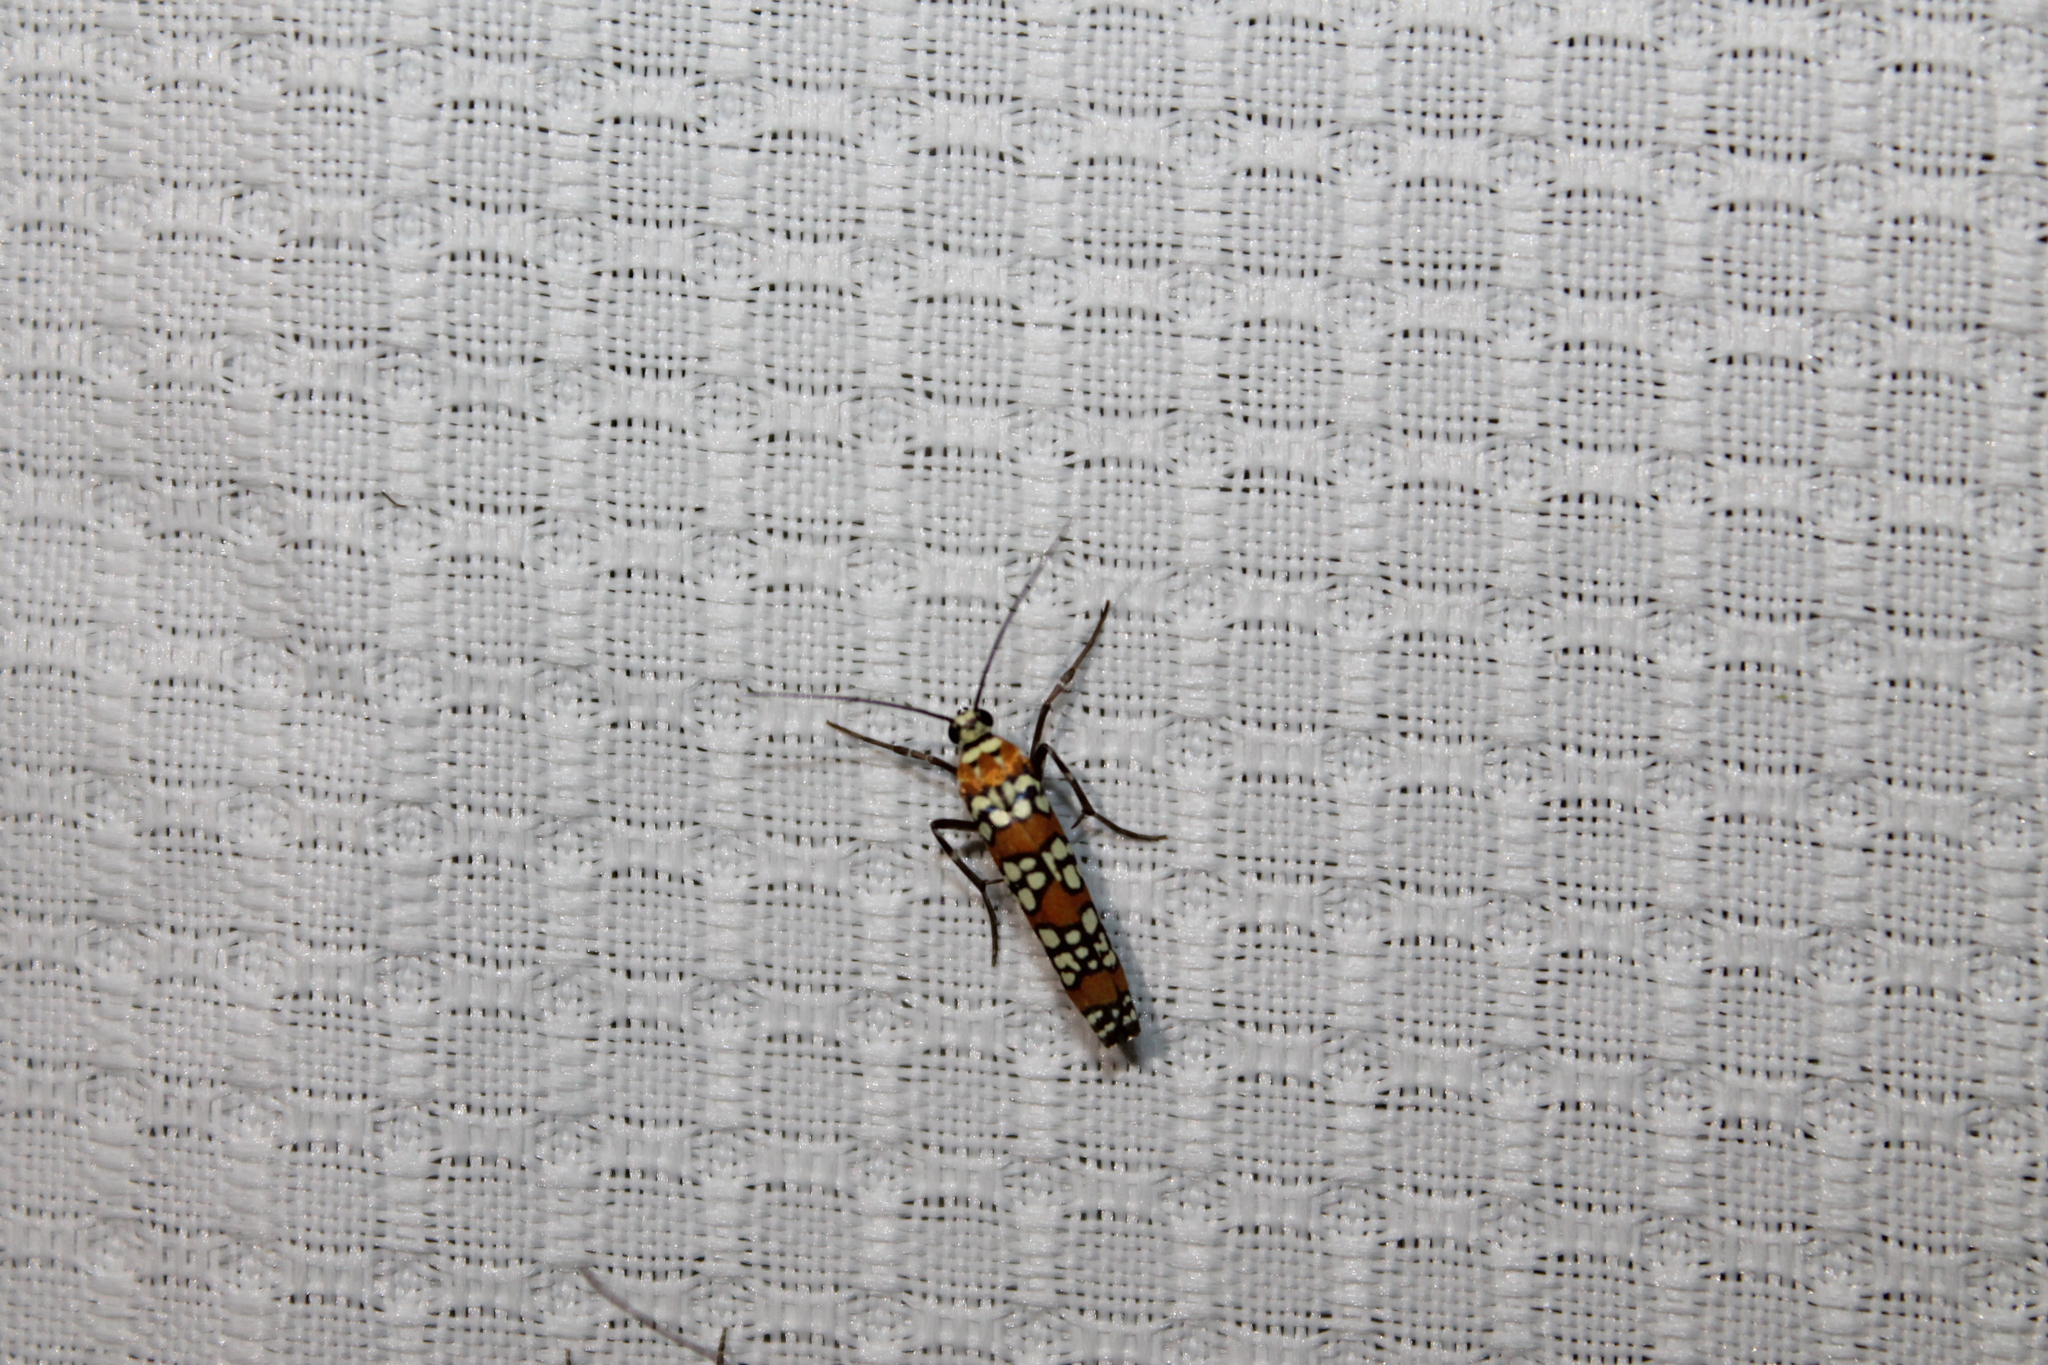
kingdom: Animalia
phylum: Arthropoda
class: Insecta
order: Lepidoptera
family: Attevidae
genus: Atteva
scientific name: Atteva punctella
